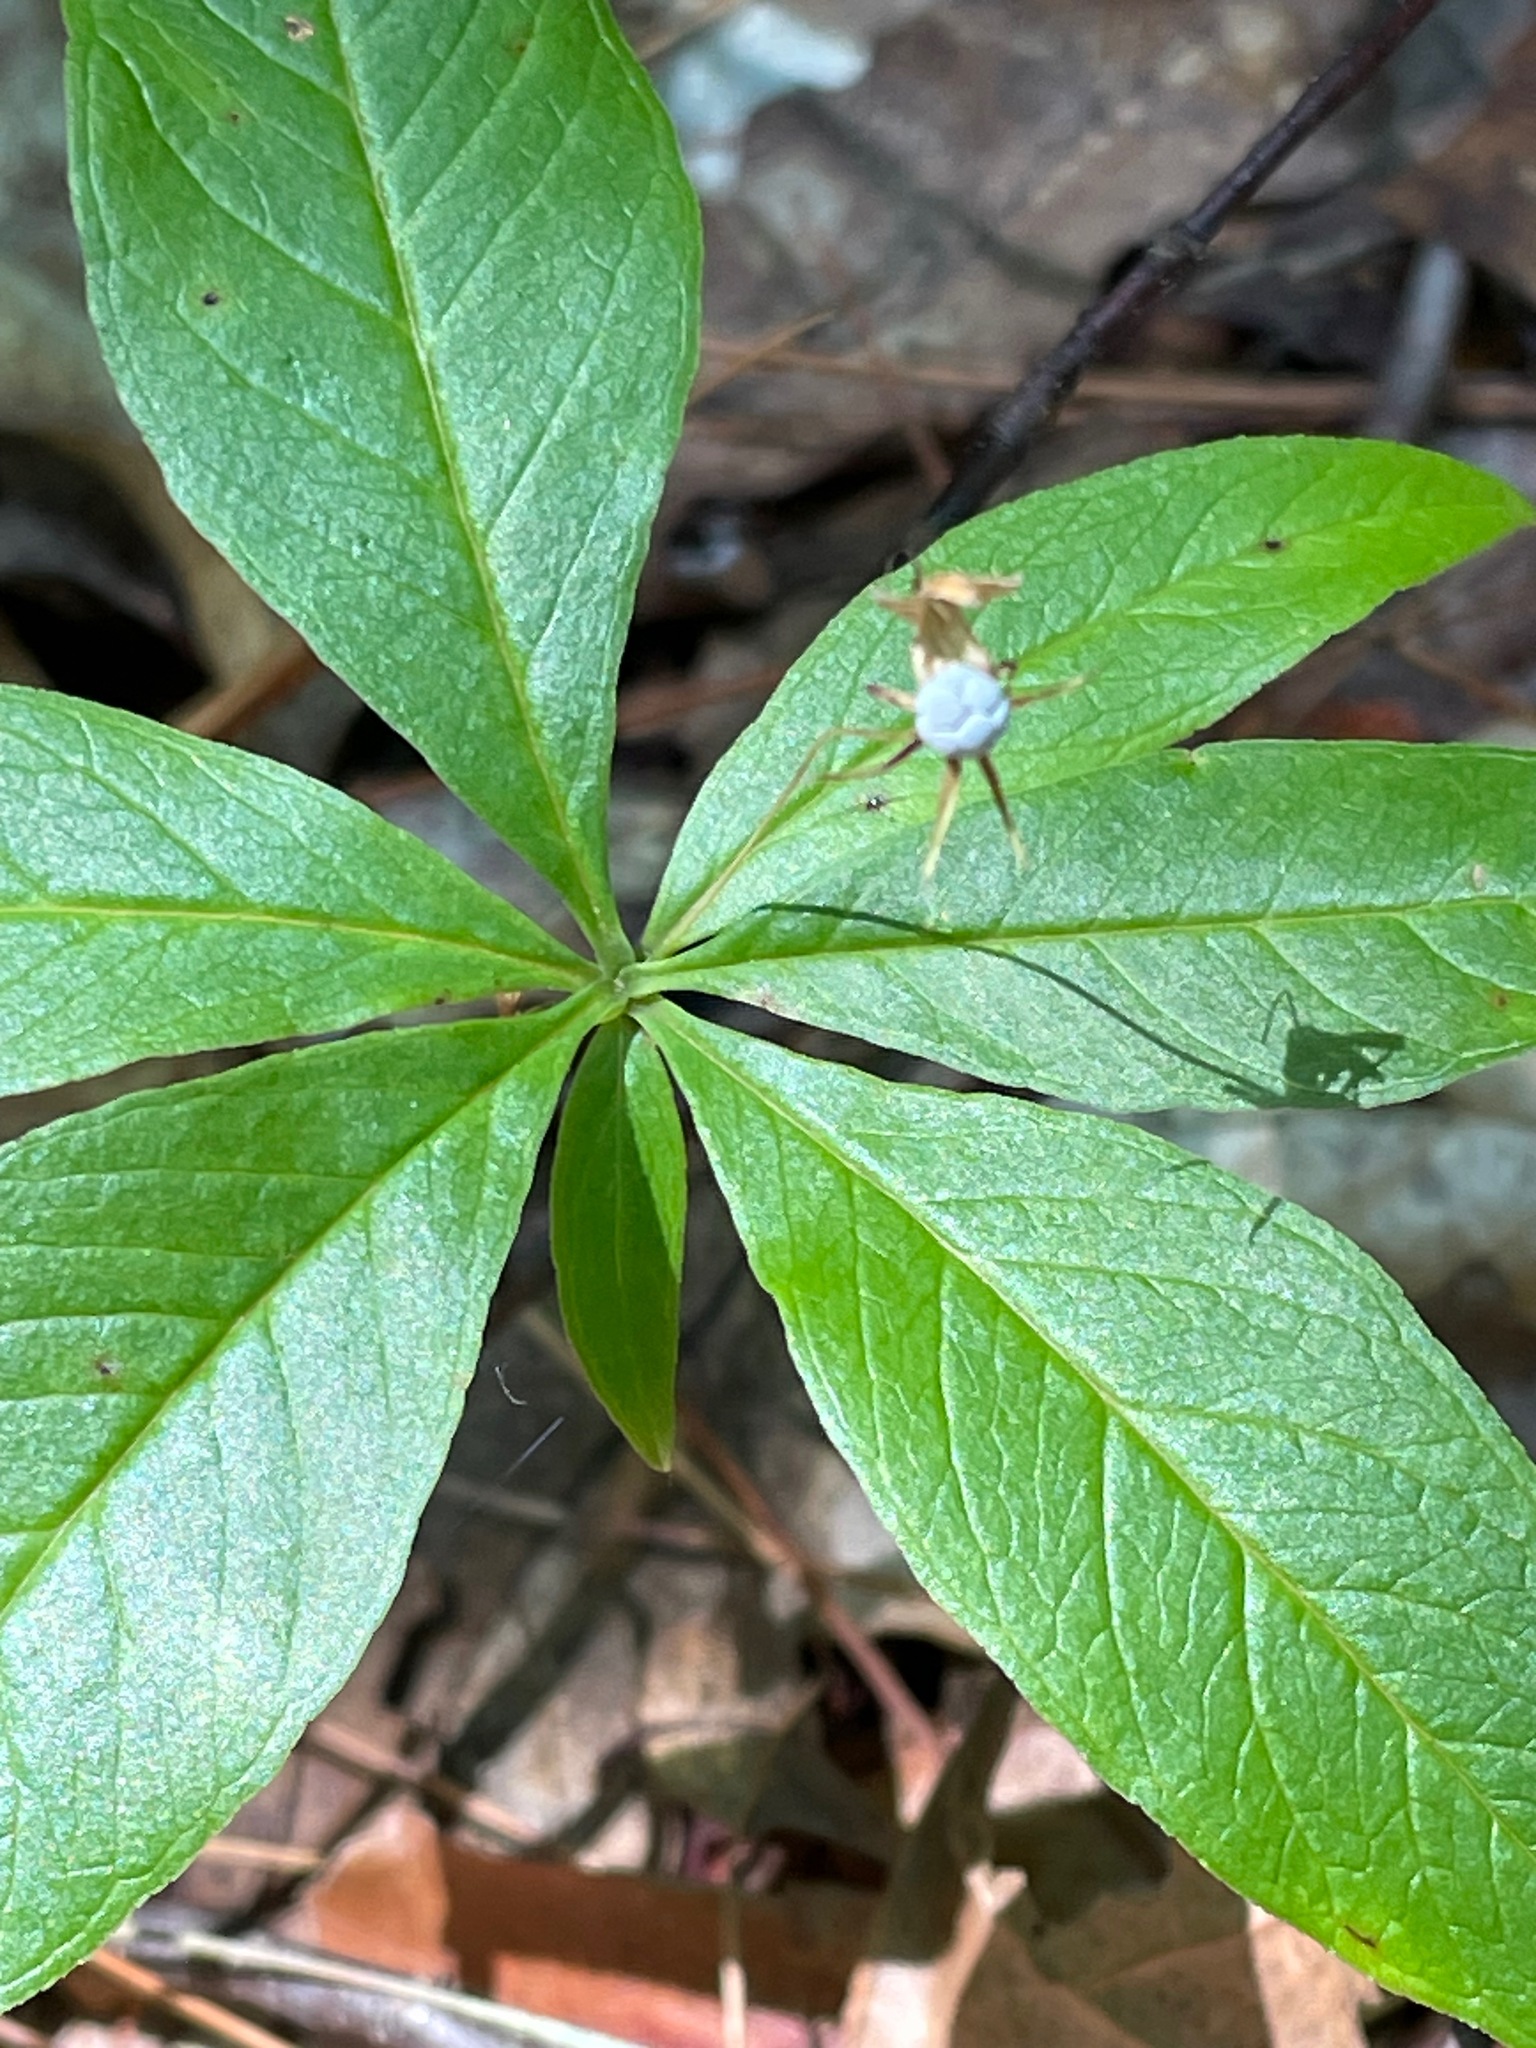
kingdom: Plantae
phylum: Tracheophyta
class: Magnoliopsida
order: Ericales
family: Primulaceae
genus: Lysimachia
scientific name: Lysimachia borealis
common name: American starflower
